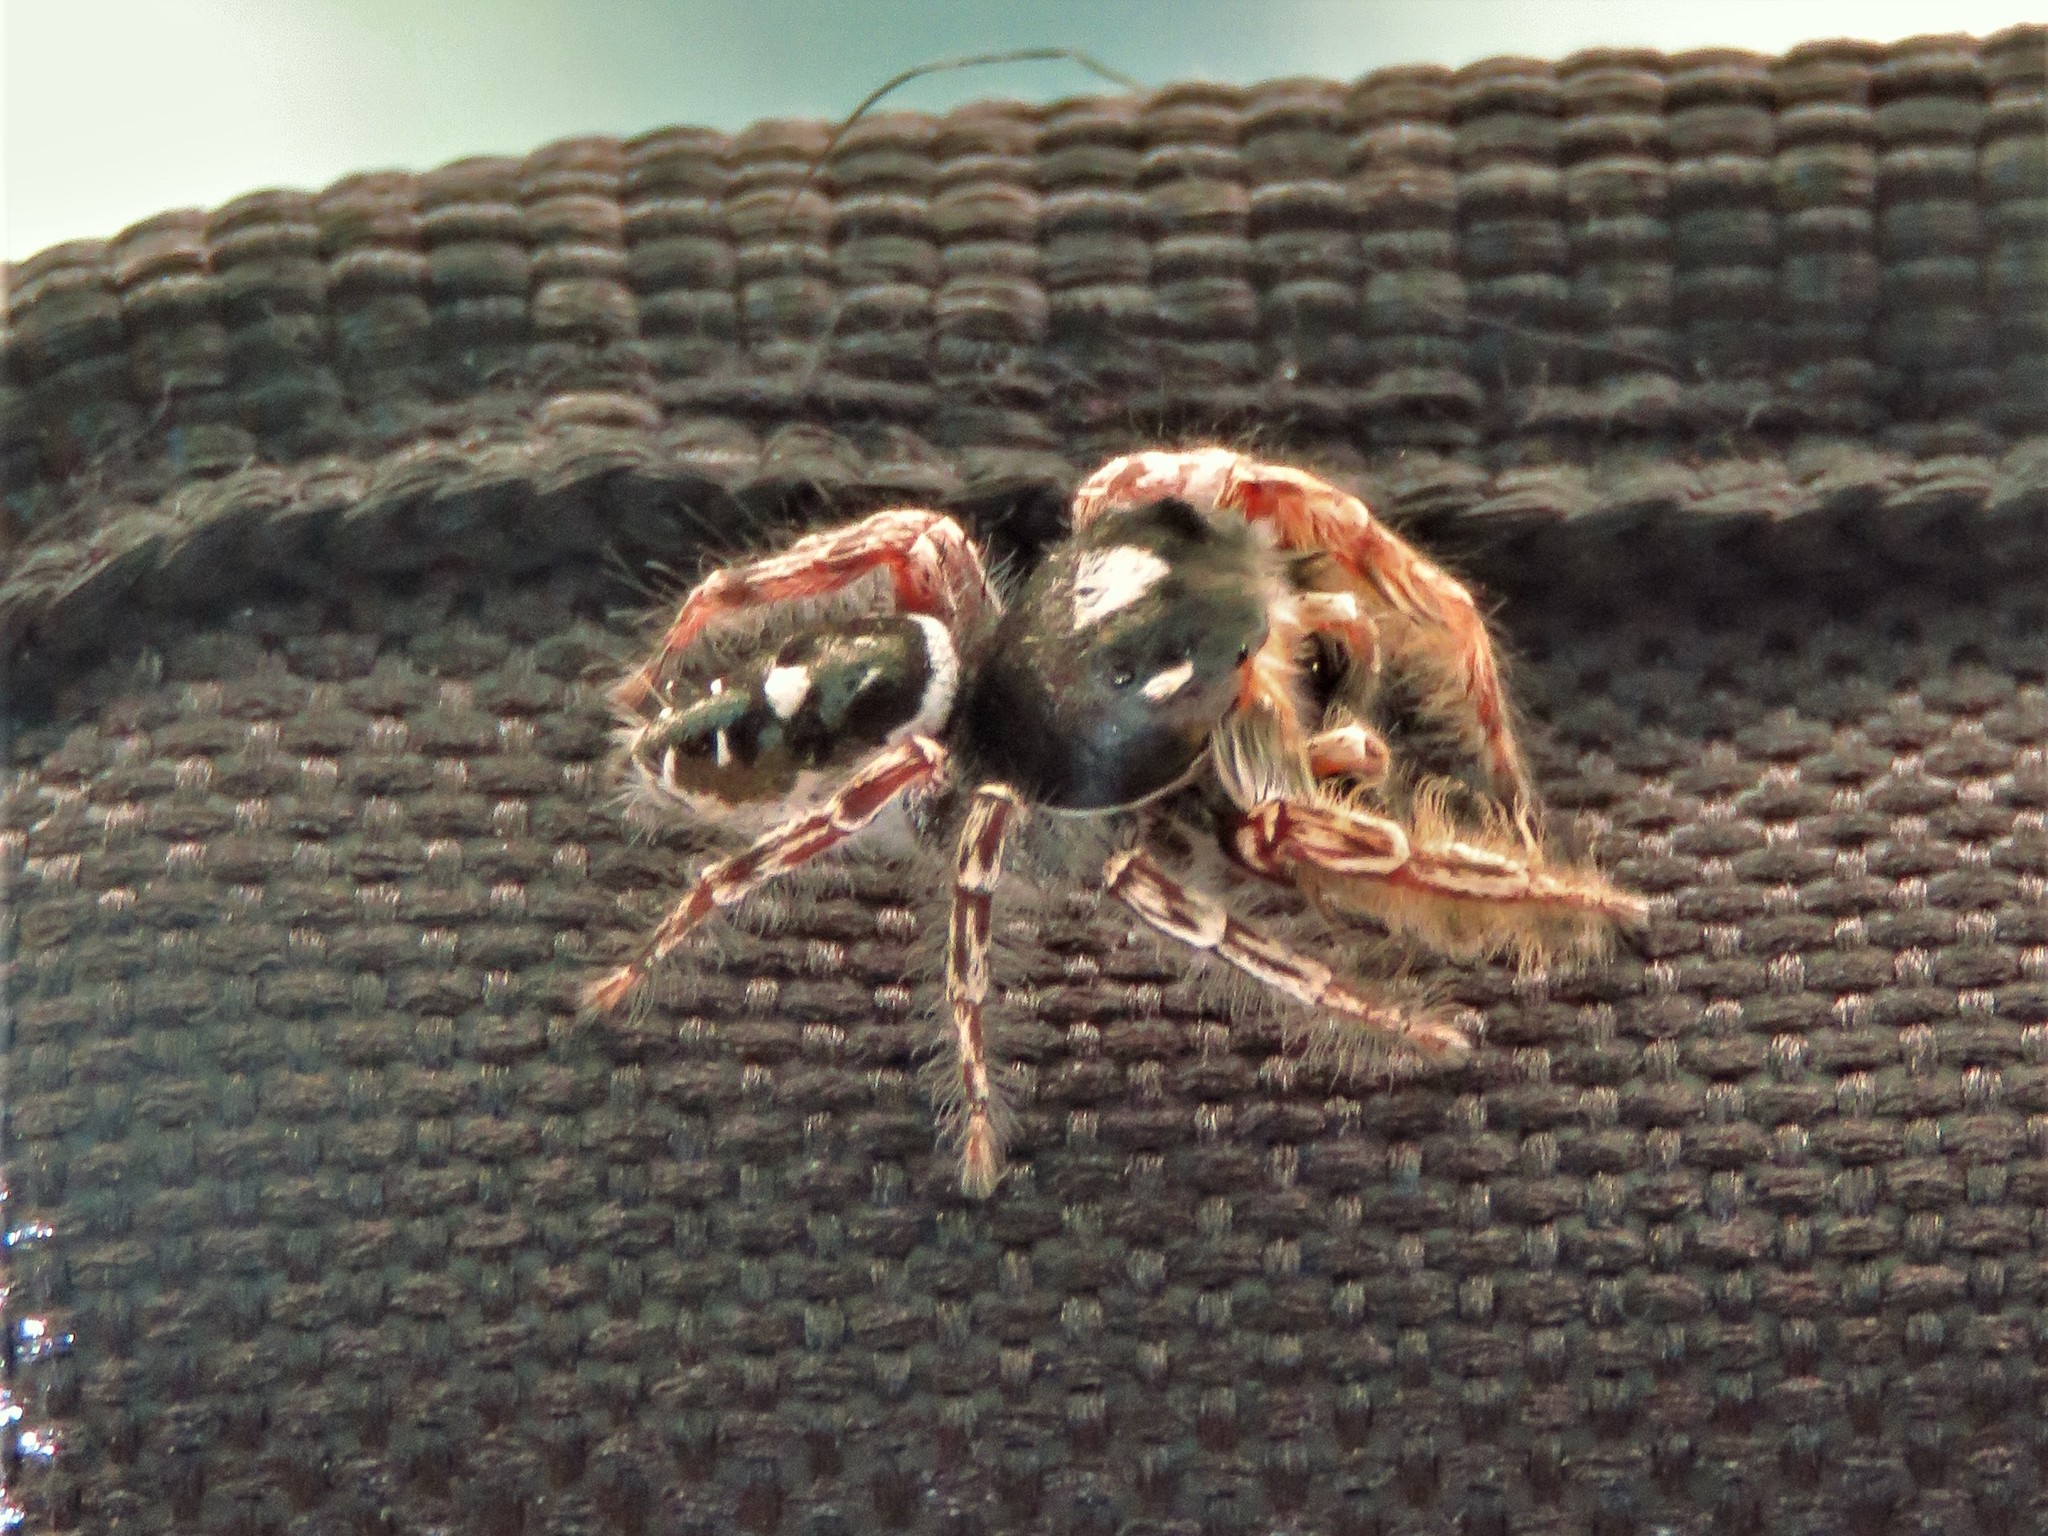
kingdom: Animalia
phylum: Arthropoda
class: Arachnida
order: Araneae
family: Salticidae
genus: Phidippus
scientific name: Phidippus putnami
